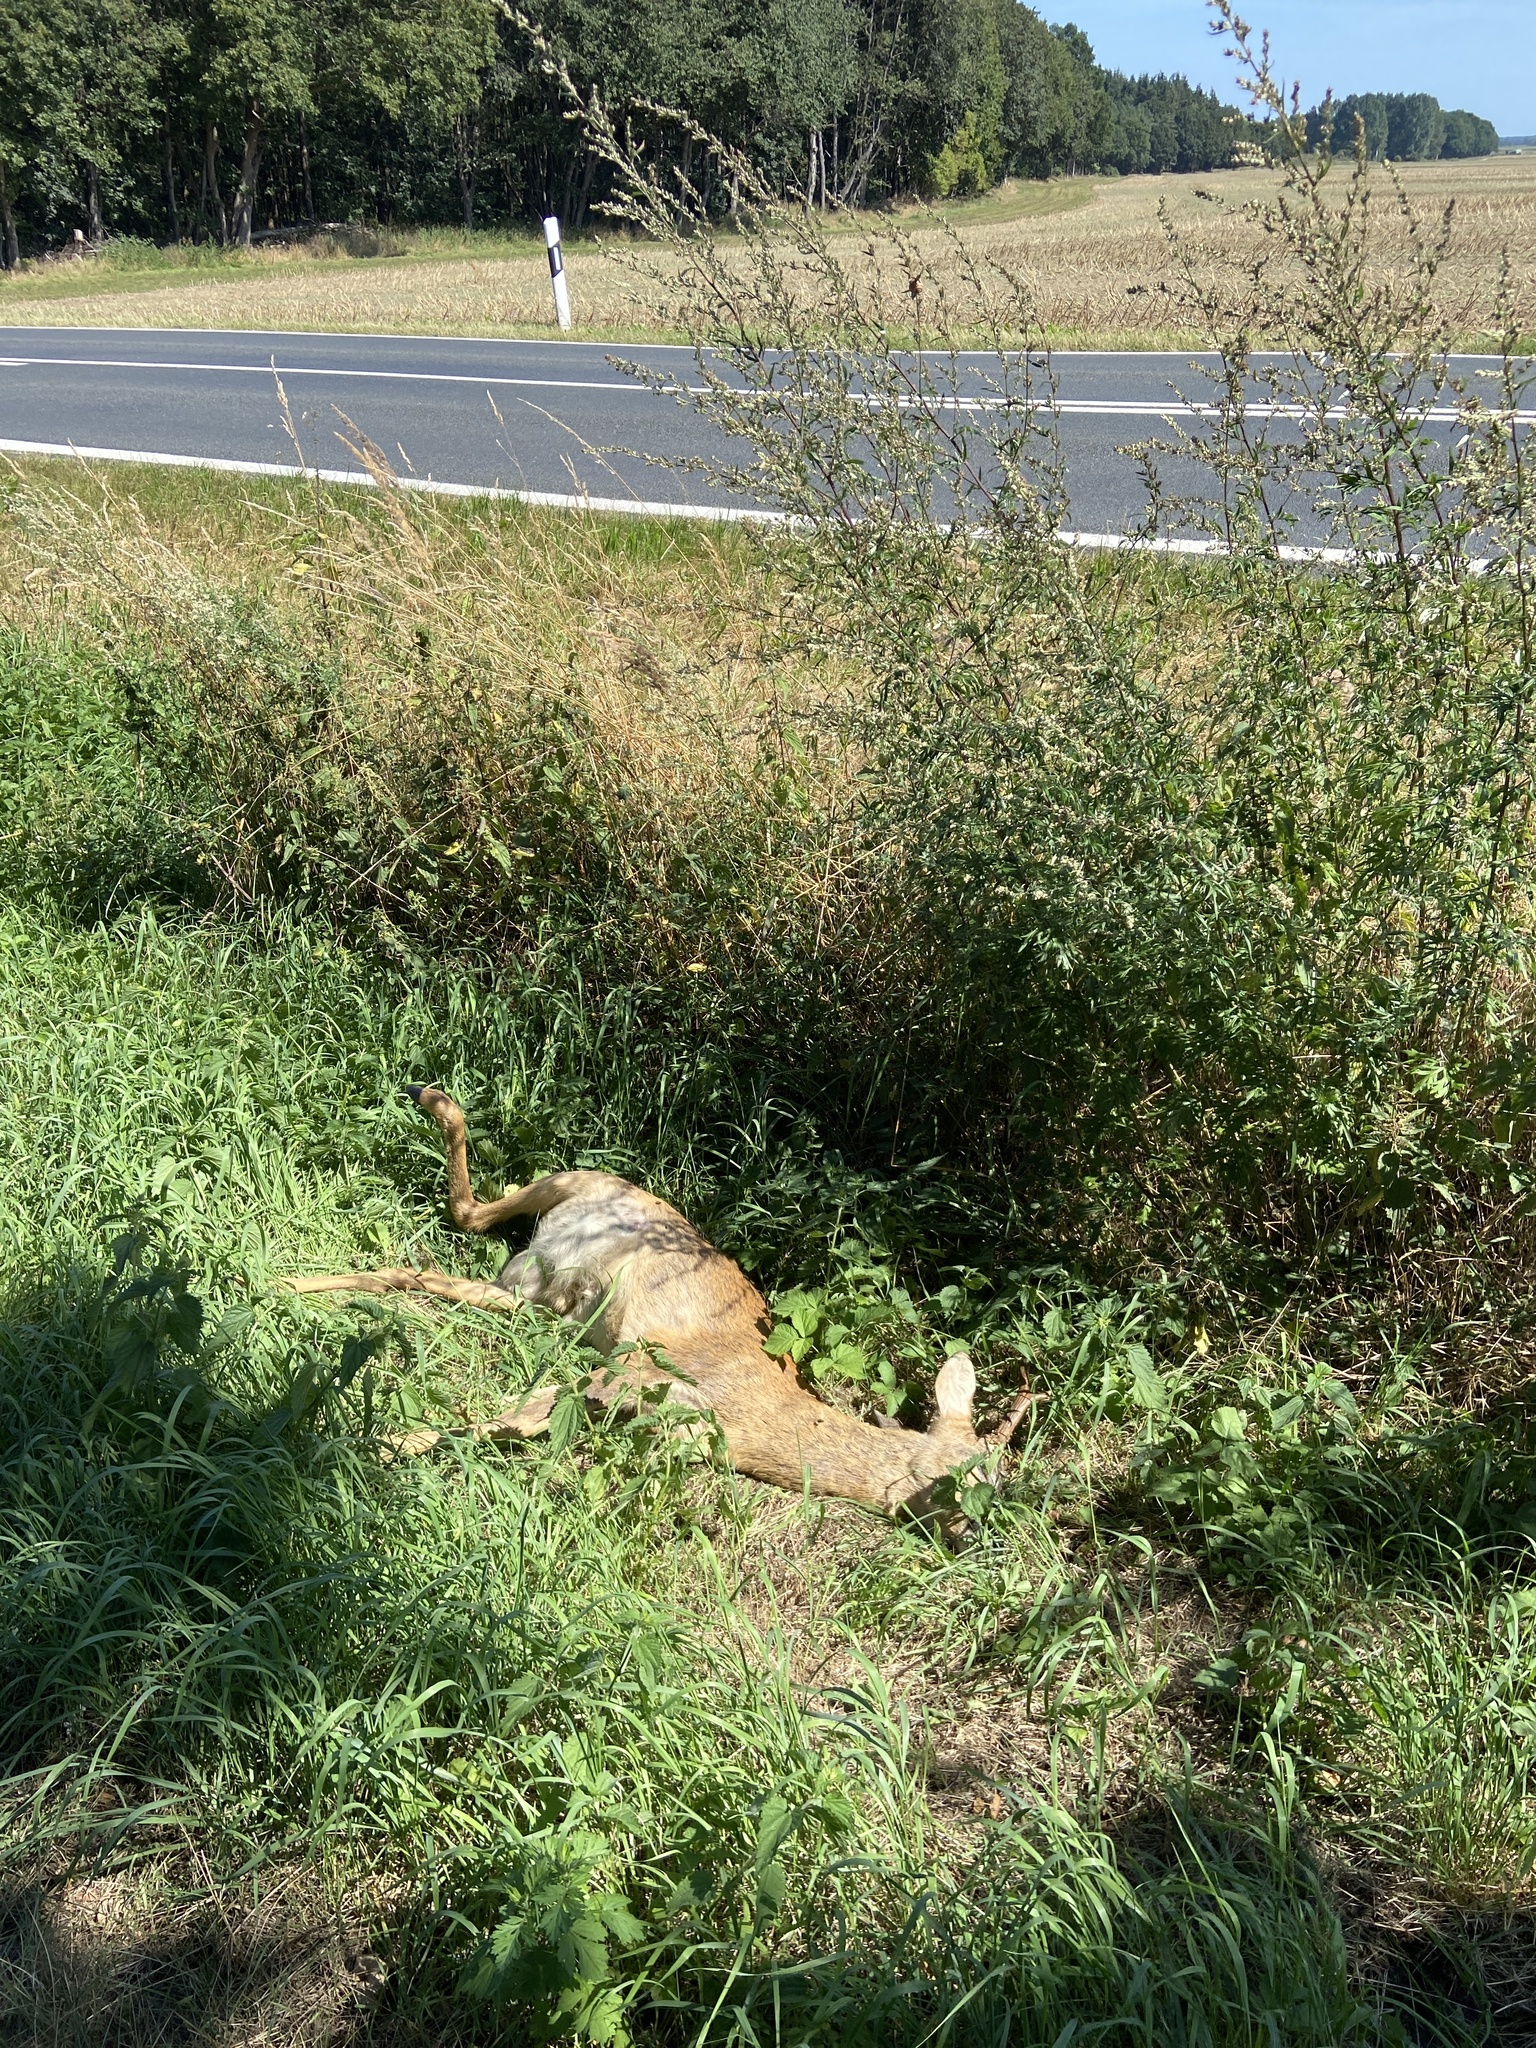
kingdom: Animalia
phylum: Chordata
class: Mammalia
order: Artiodactyla
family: Cervidae
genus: Capreolus
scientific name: Capreolus capreolus
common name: Western roe deer
